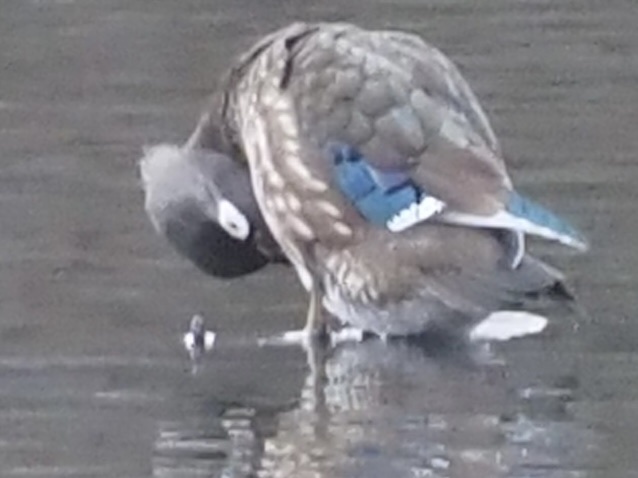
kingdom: Animalia
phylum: Chordata
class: Aves
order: Anseriformes
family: Anatidae
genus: Aix
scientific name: Aix sponsa
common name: Wood duck
